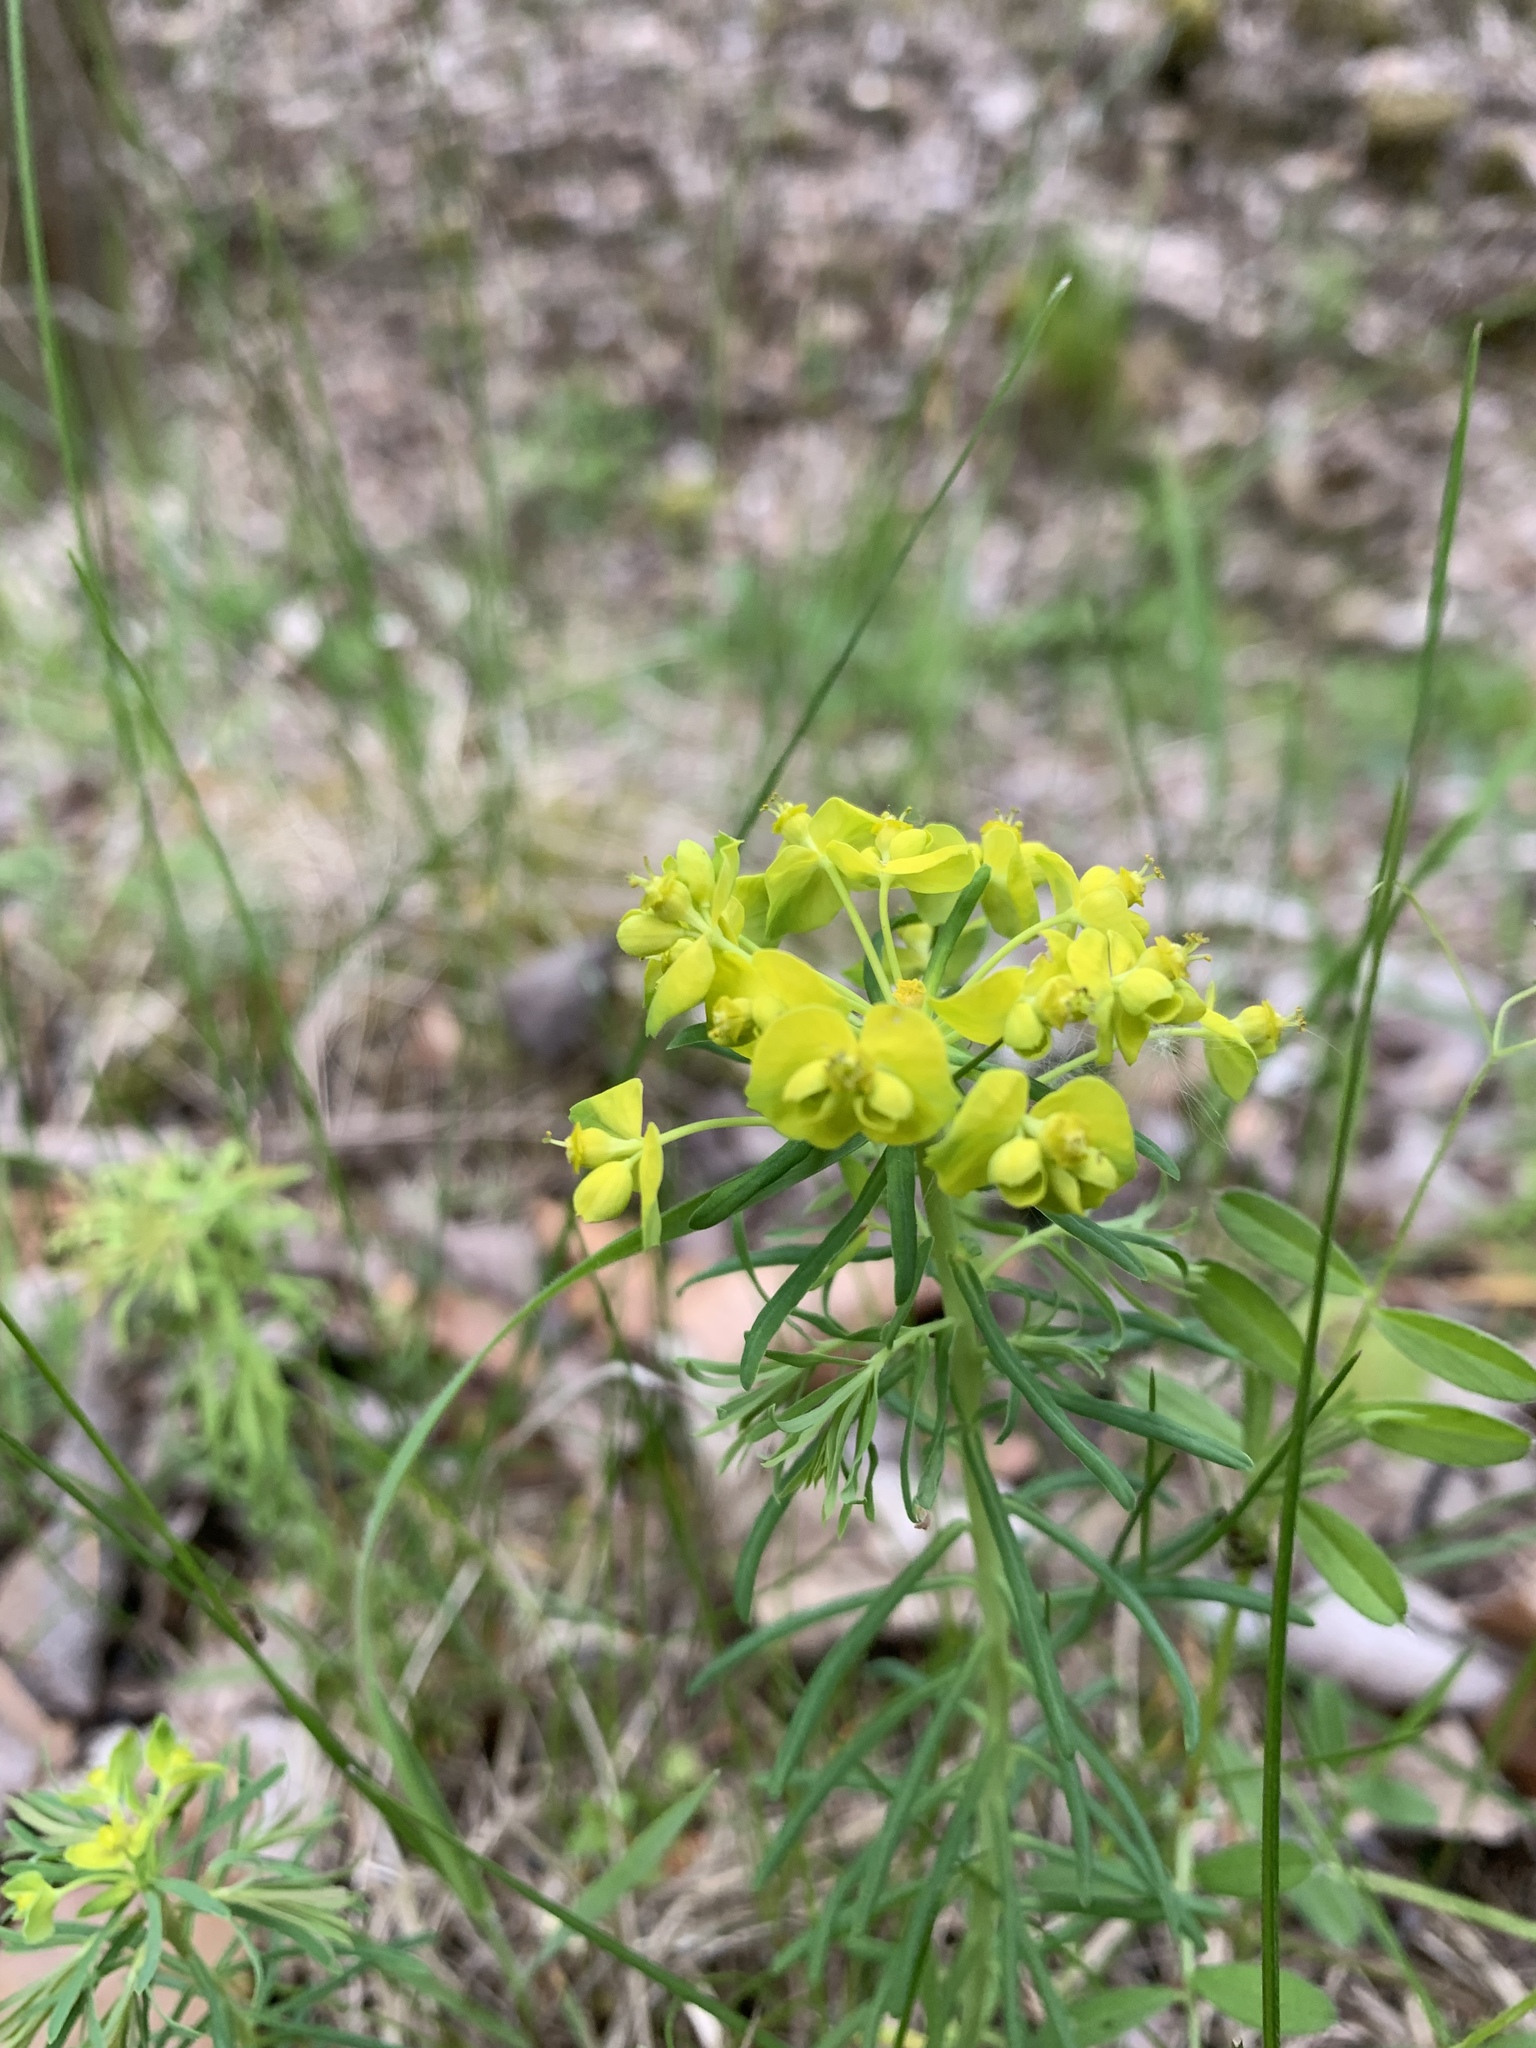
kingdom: Plantae
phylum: Tracheophyta
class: Magnoliopsida
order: Malpighiales
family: Euphorbiaceae
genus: Euphorbia
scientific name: Euphorbia cyparissias
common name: Cypress spurge
